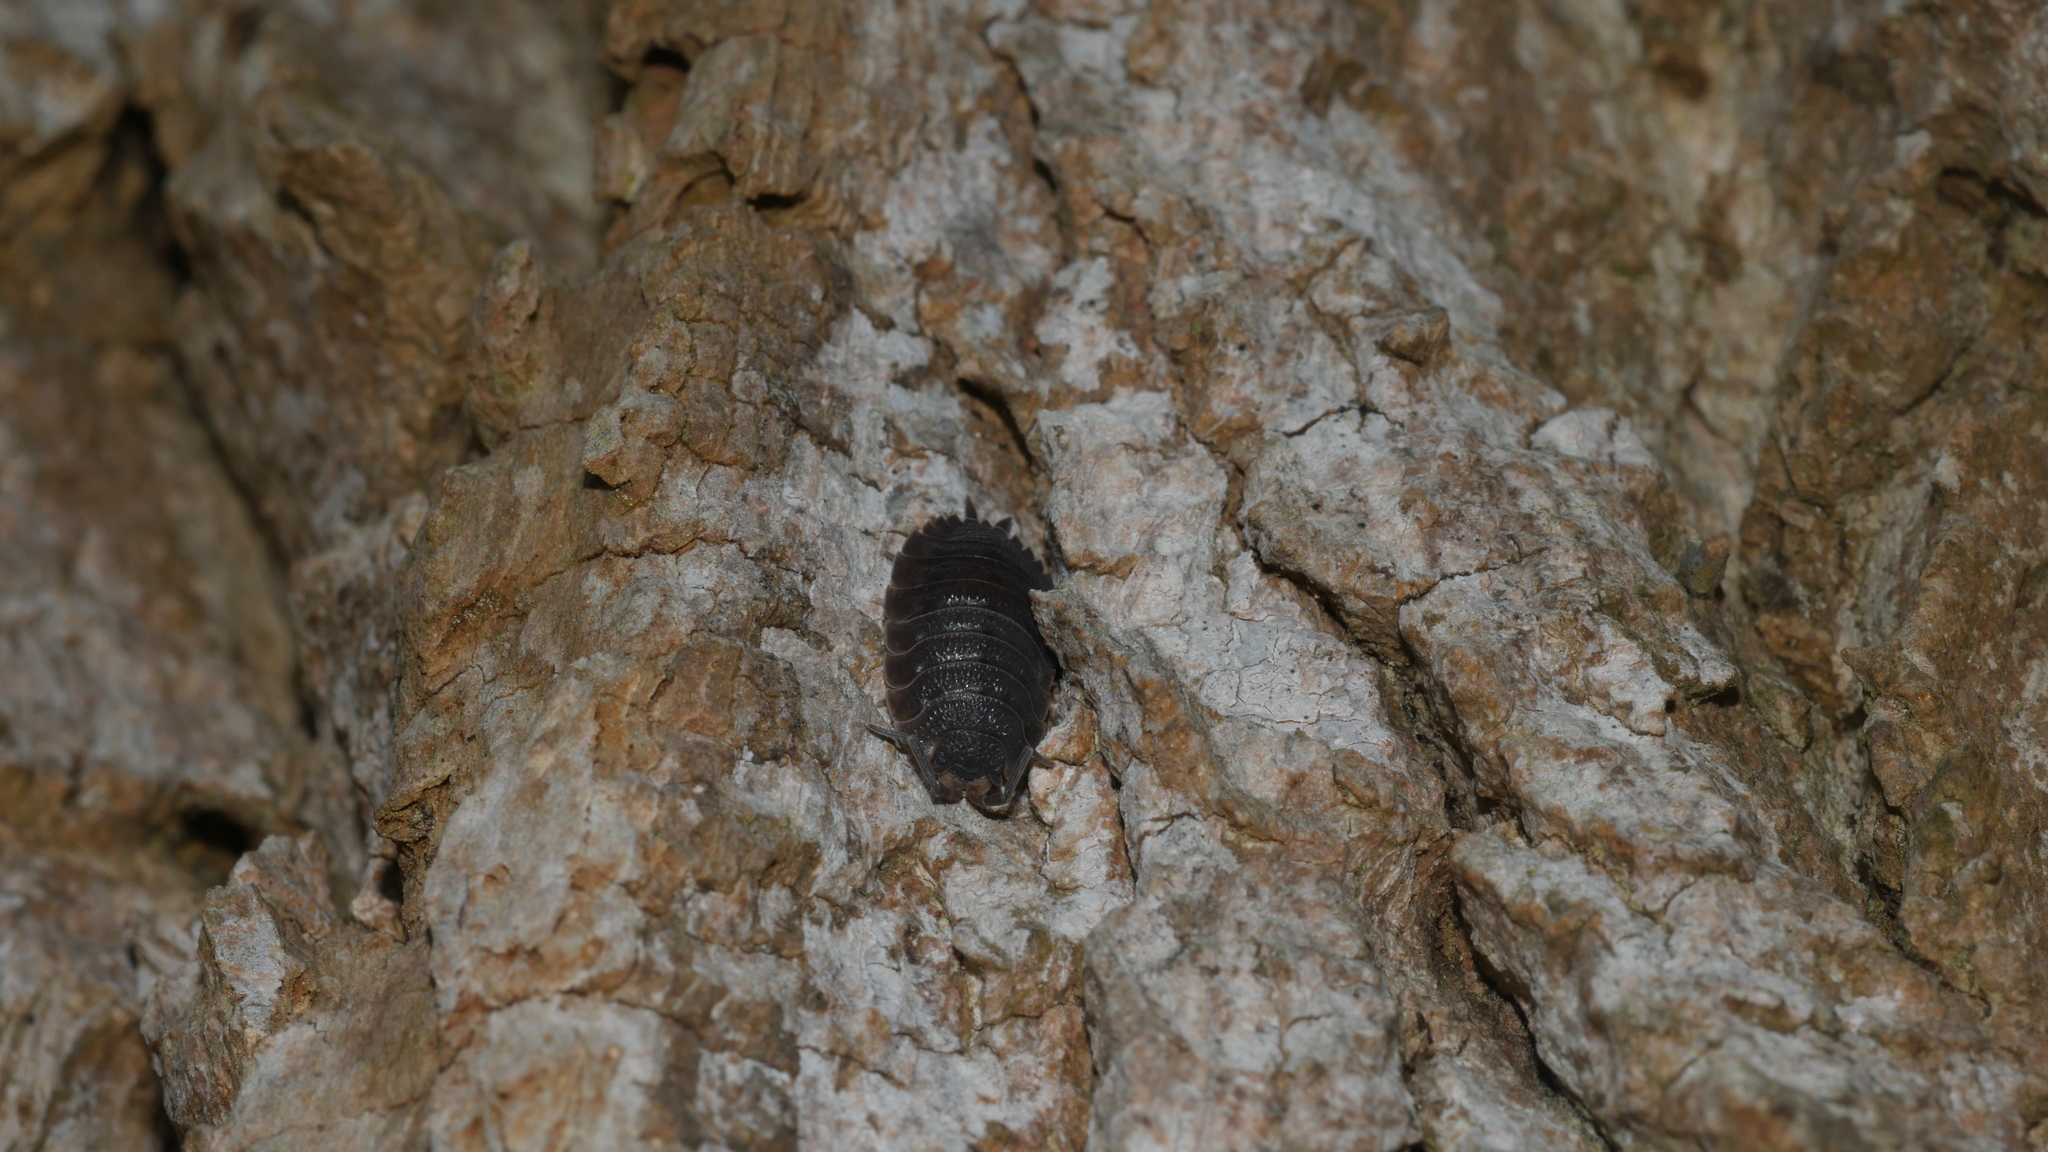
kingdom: Animalia
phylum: Arthropoda
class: Malacostraca
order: Isopoda
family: Porcellionidae
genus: Porcellio
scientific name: Porcellio scaber
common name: Common rough woodlouse
